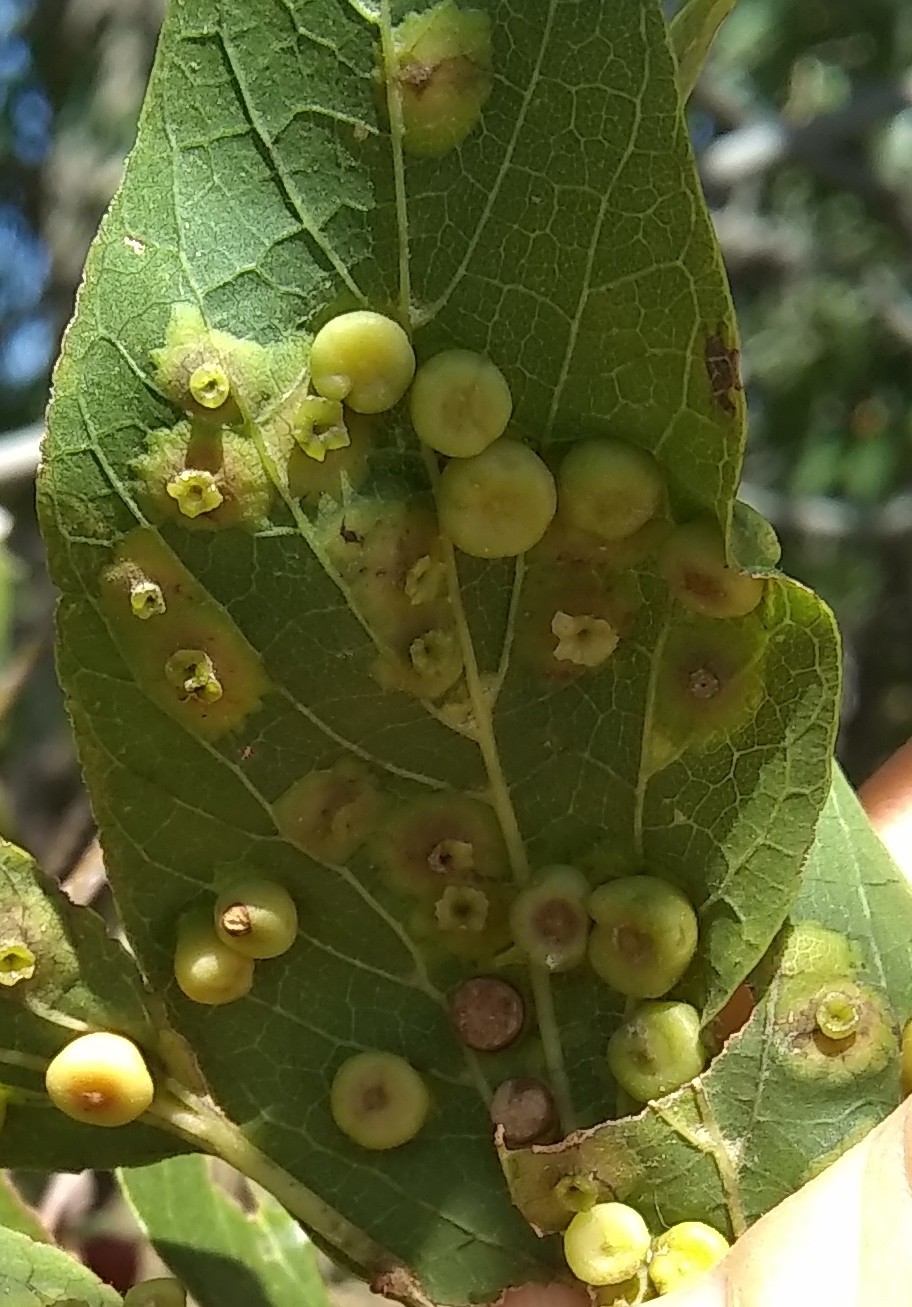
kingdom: Animalia
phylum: Arthropoda
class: Insecta
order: Hemiptera
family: Aphalaridae
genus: Pachypsylla
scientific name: Pachypsylla celtidisasterisca
